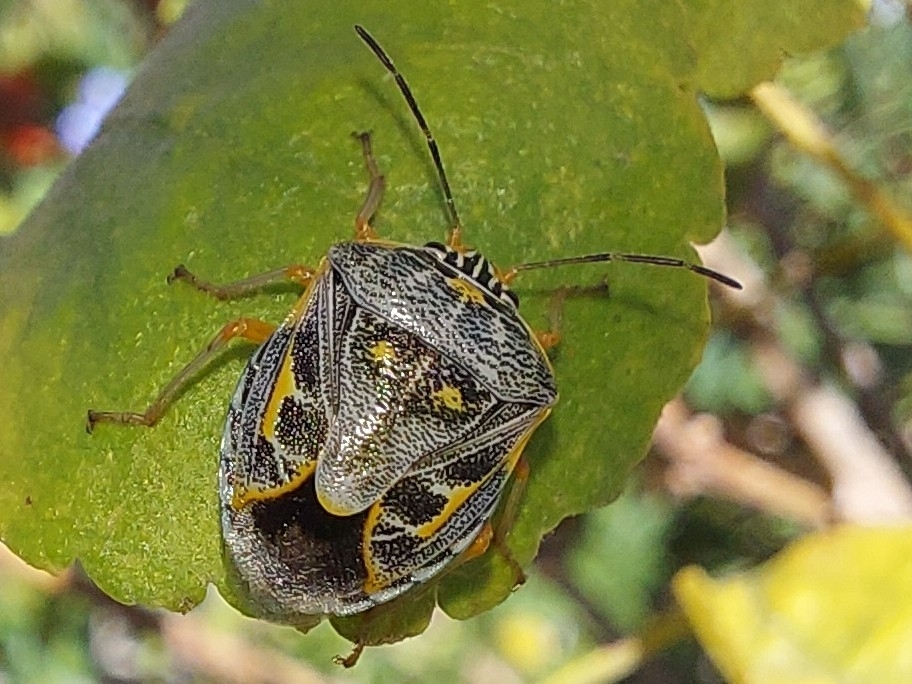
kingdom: Animalia
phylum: Arthropoda
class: Insecta
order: Hemiptera
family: Pentatomidae
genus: Antestiopsis
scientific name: Antestiopsis thunbergii
